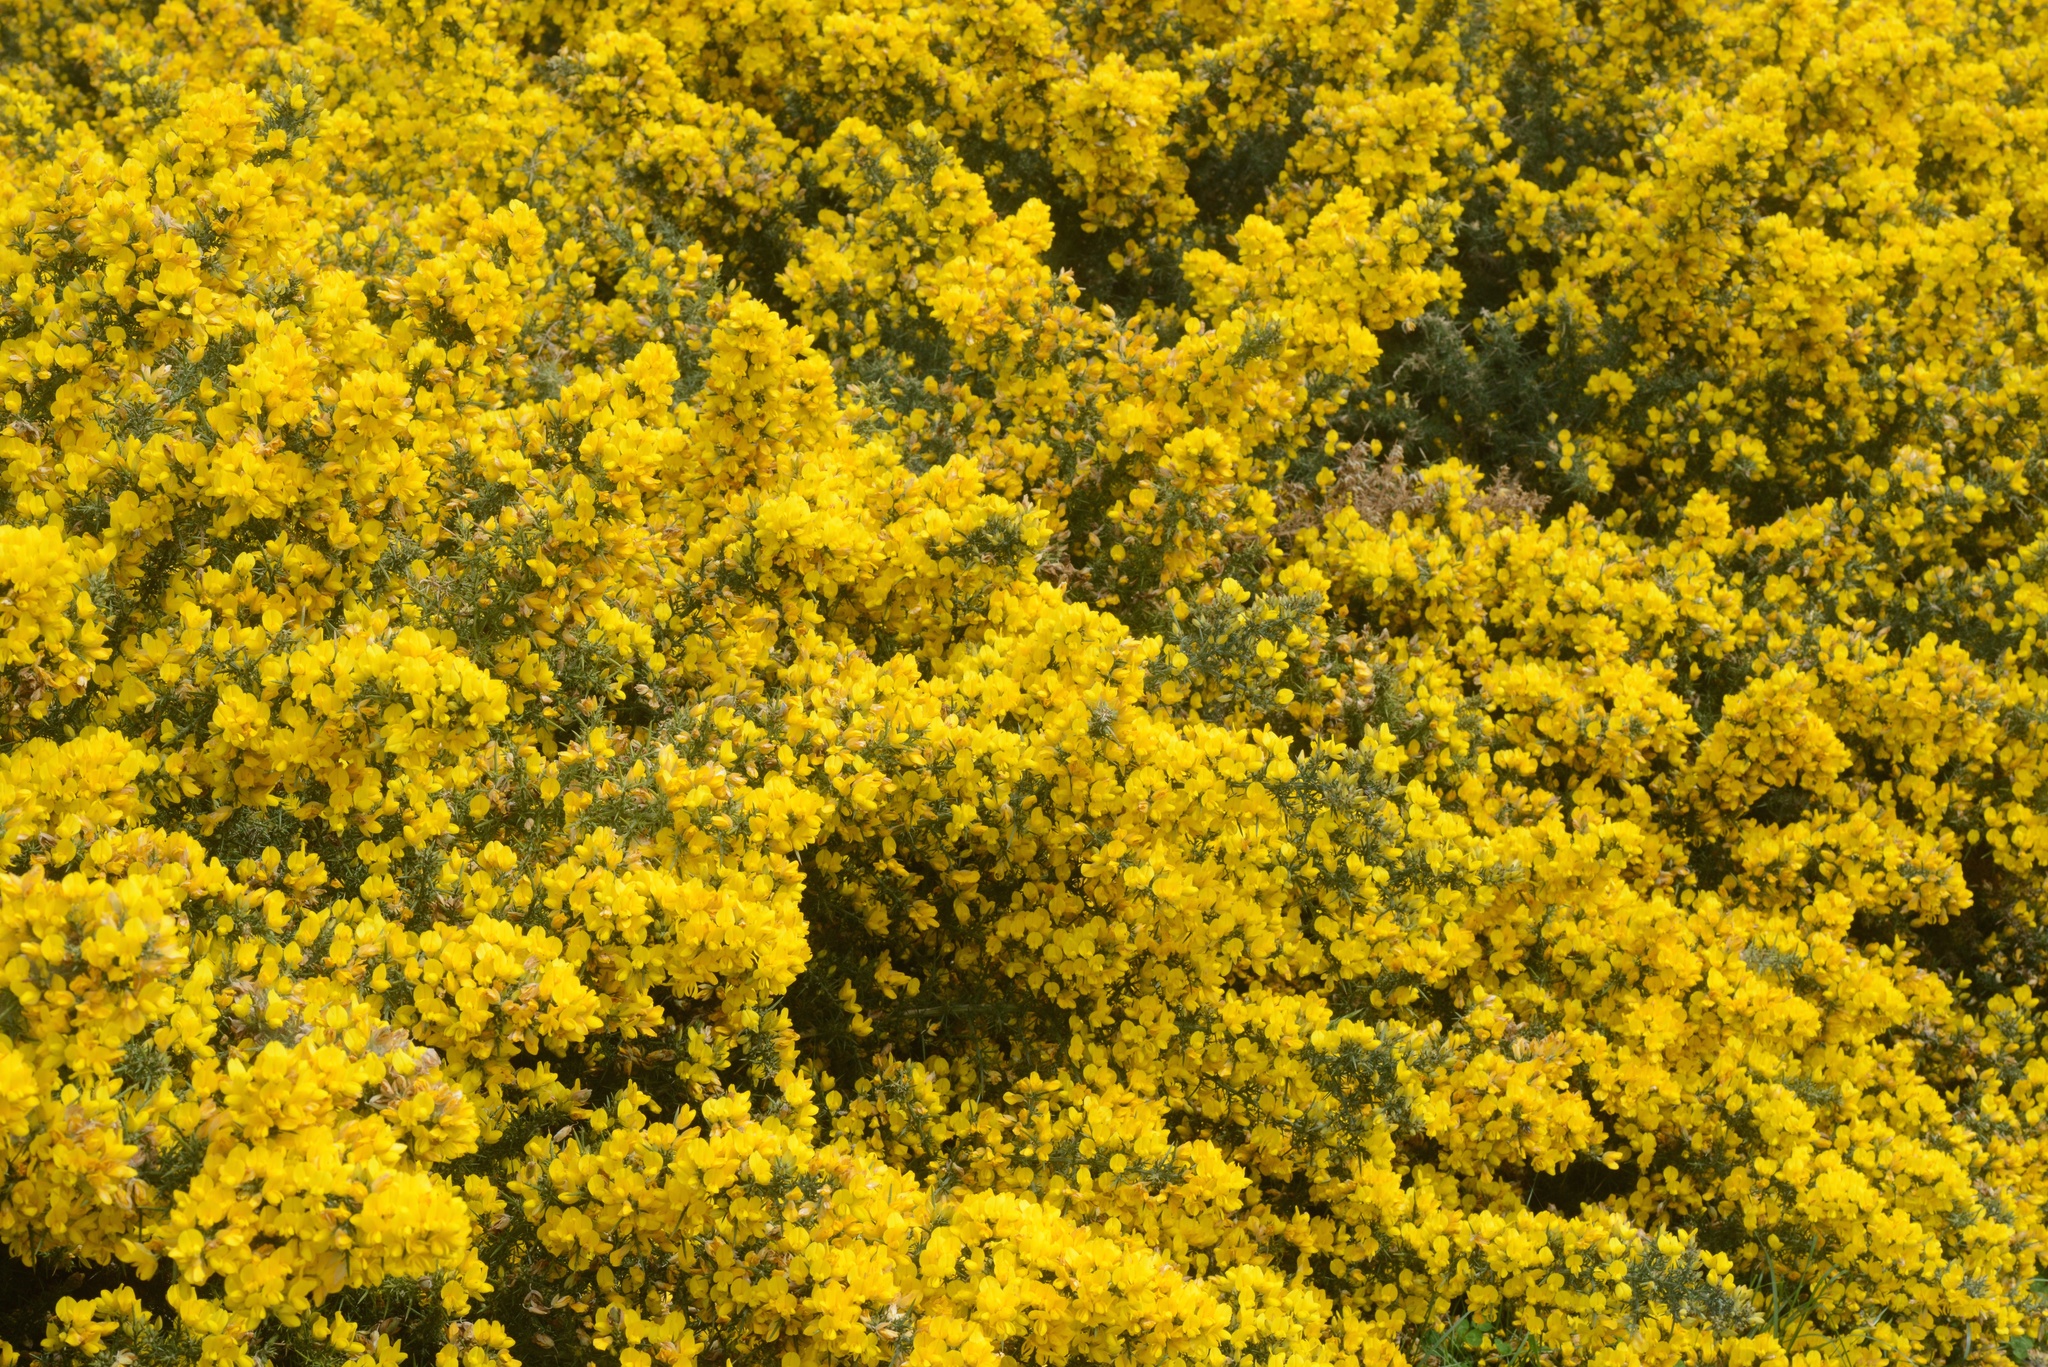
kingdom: Plantae
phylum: Tracheophyta
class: Magnoliopsida
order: Fabales
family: Fabaceae
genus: Ulex
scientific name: Ulex europaeus
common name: Common gorse
